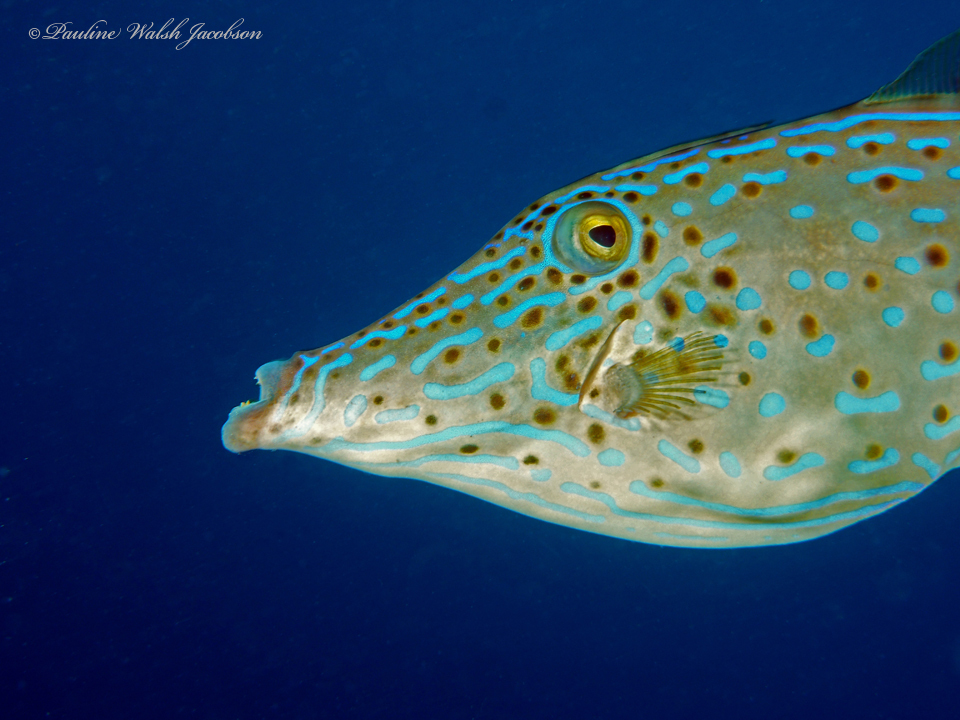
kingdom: Animalia
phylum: Chordata
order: Tetraodontiformes
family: Monacanthidae
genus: Aluterus
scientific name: Aluterus scriptus
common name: Scribbled leatherjacket filefish
